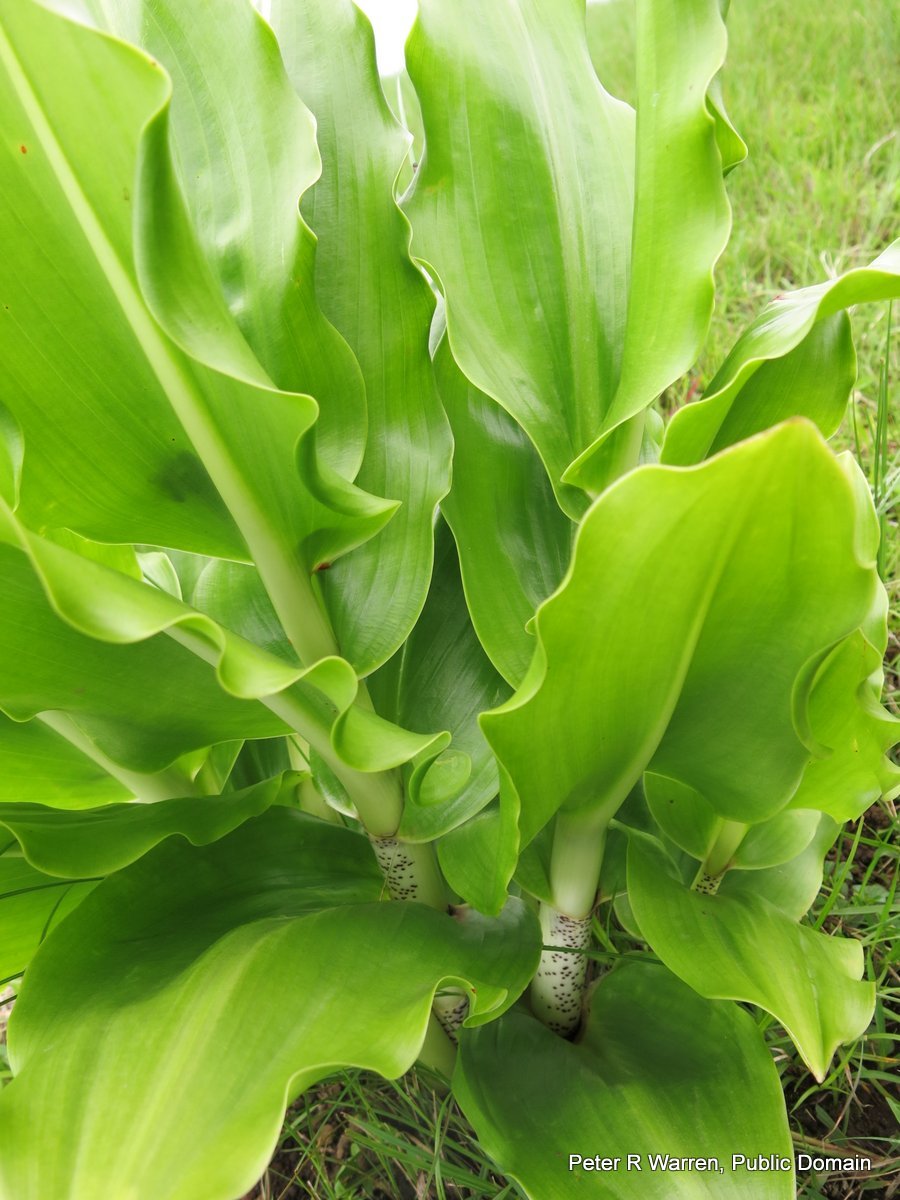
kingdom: Plantae
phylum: Tracheophyta
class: Liliopsida
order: Asparagales
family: Amaryllidaceae
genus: Scadoxus
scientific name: Scadoxus multiflorus
